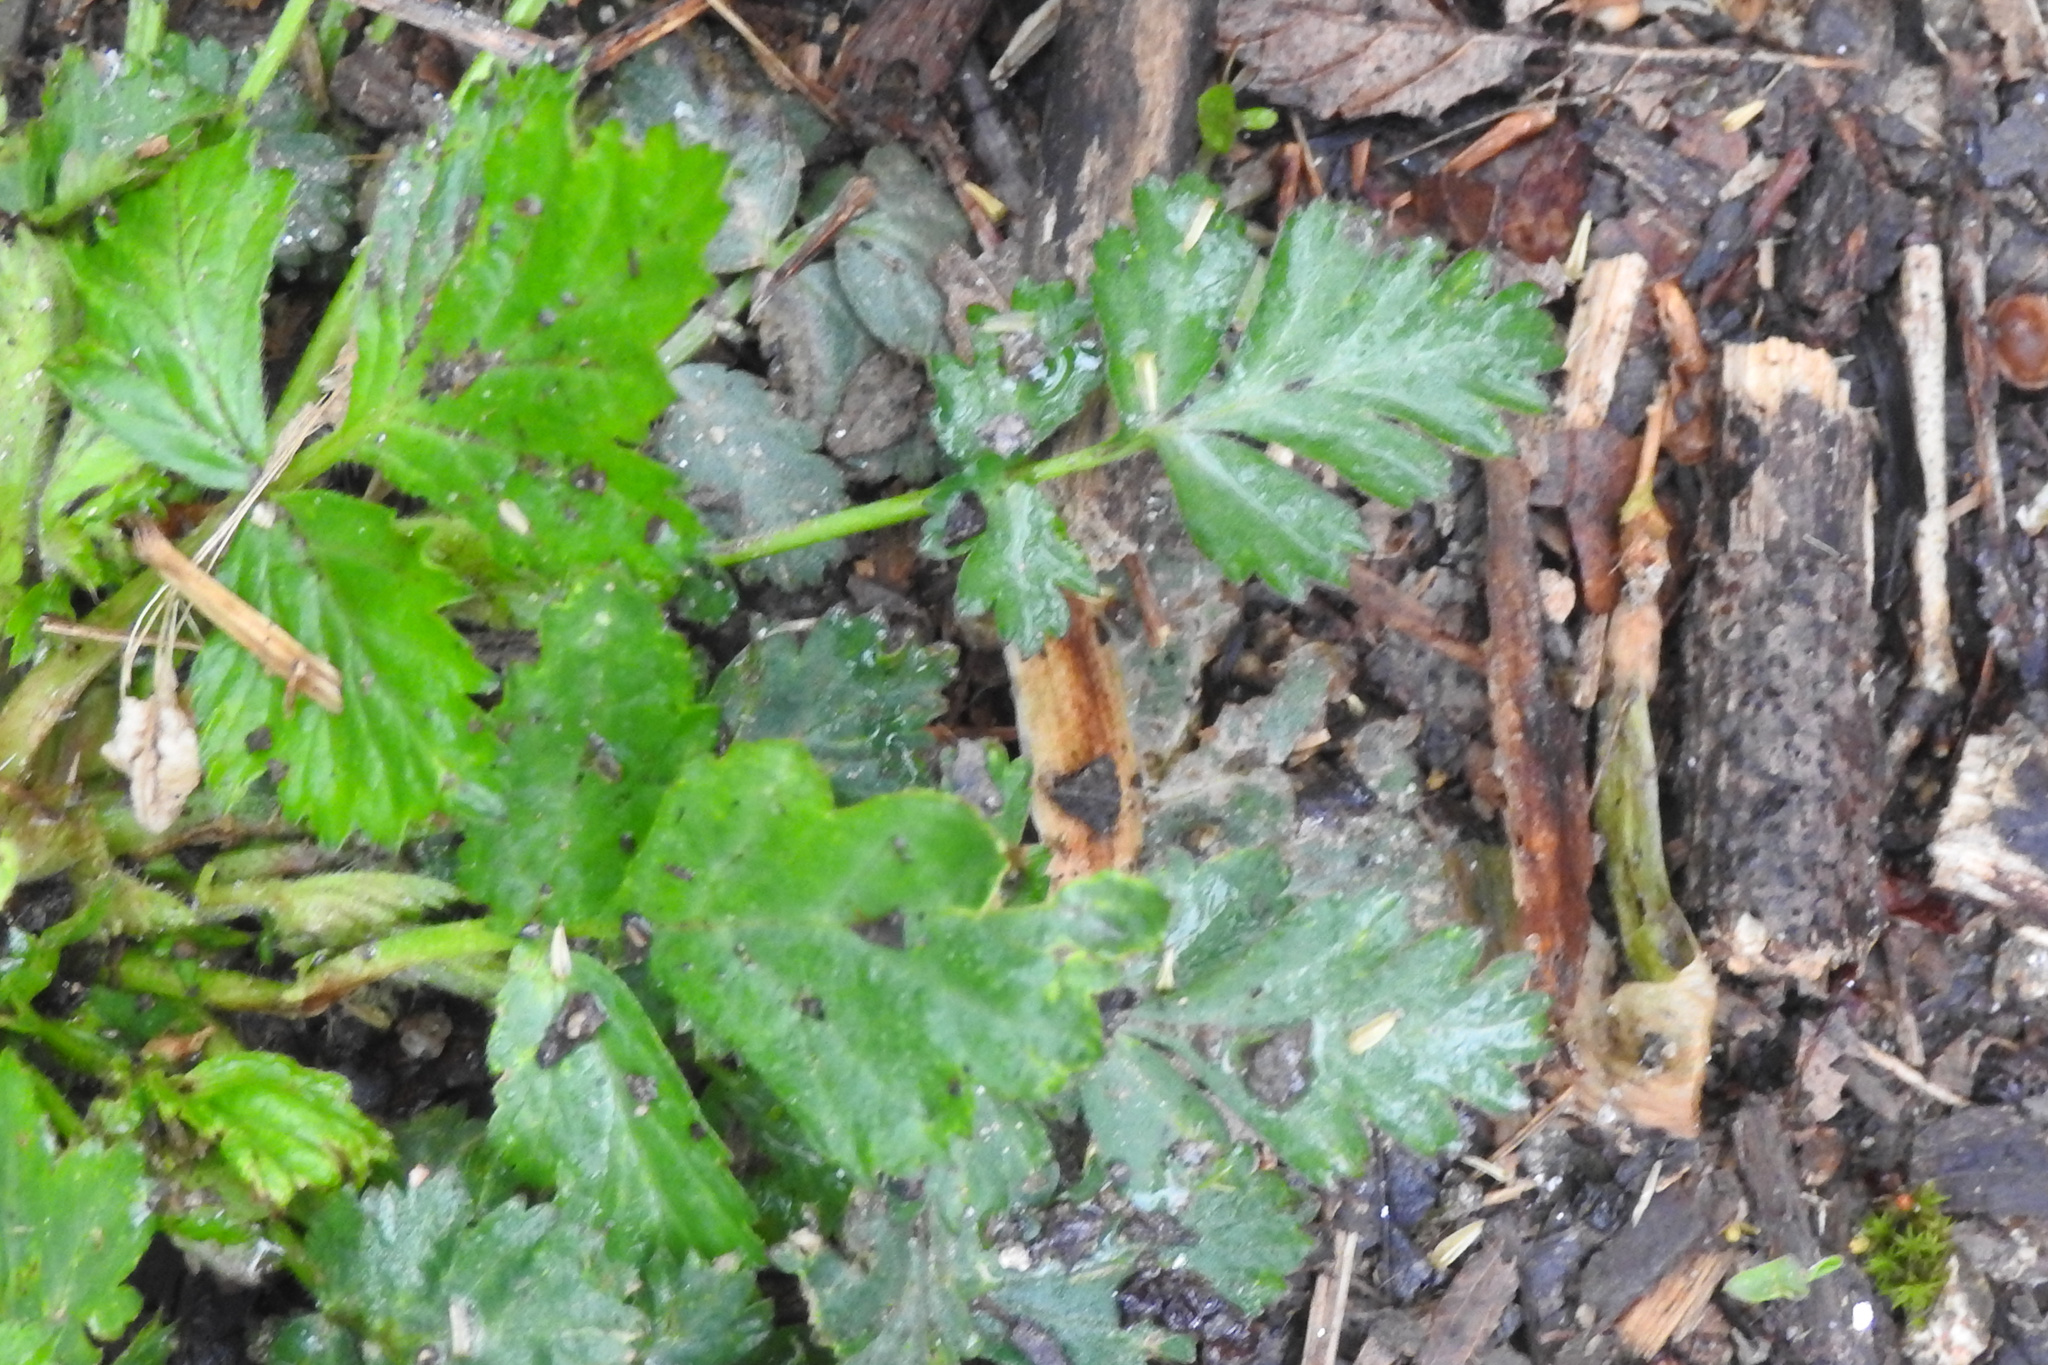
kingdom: Plantae
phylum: Tracheophyta
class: Magnoliopsida
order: Rosales
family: Rosaceae
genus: Geum
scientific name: Geum canadense
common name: White avens
